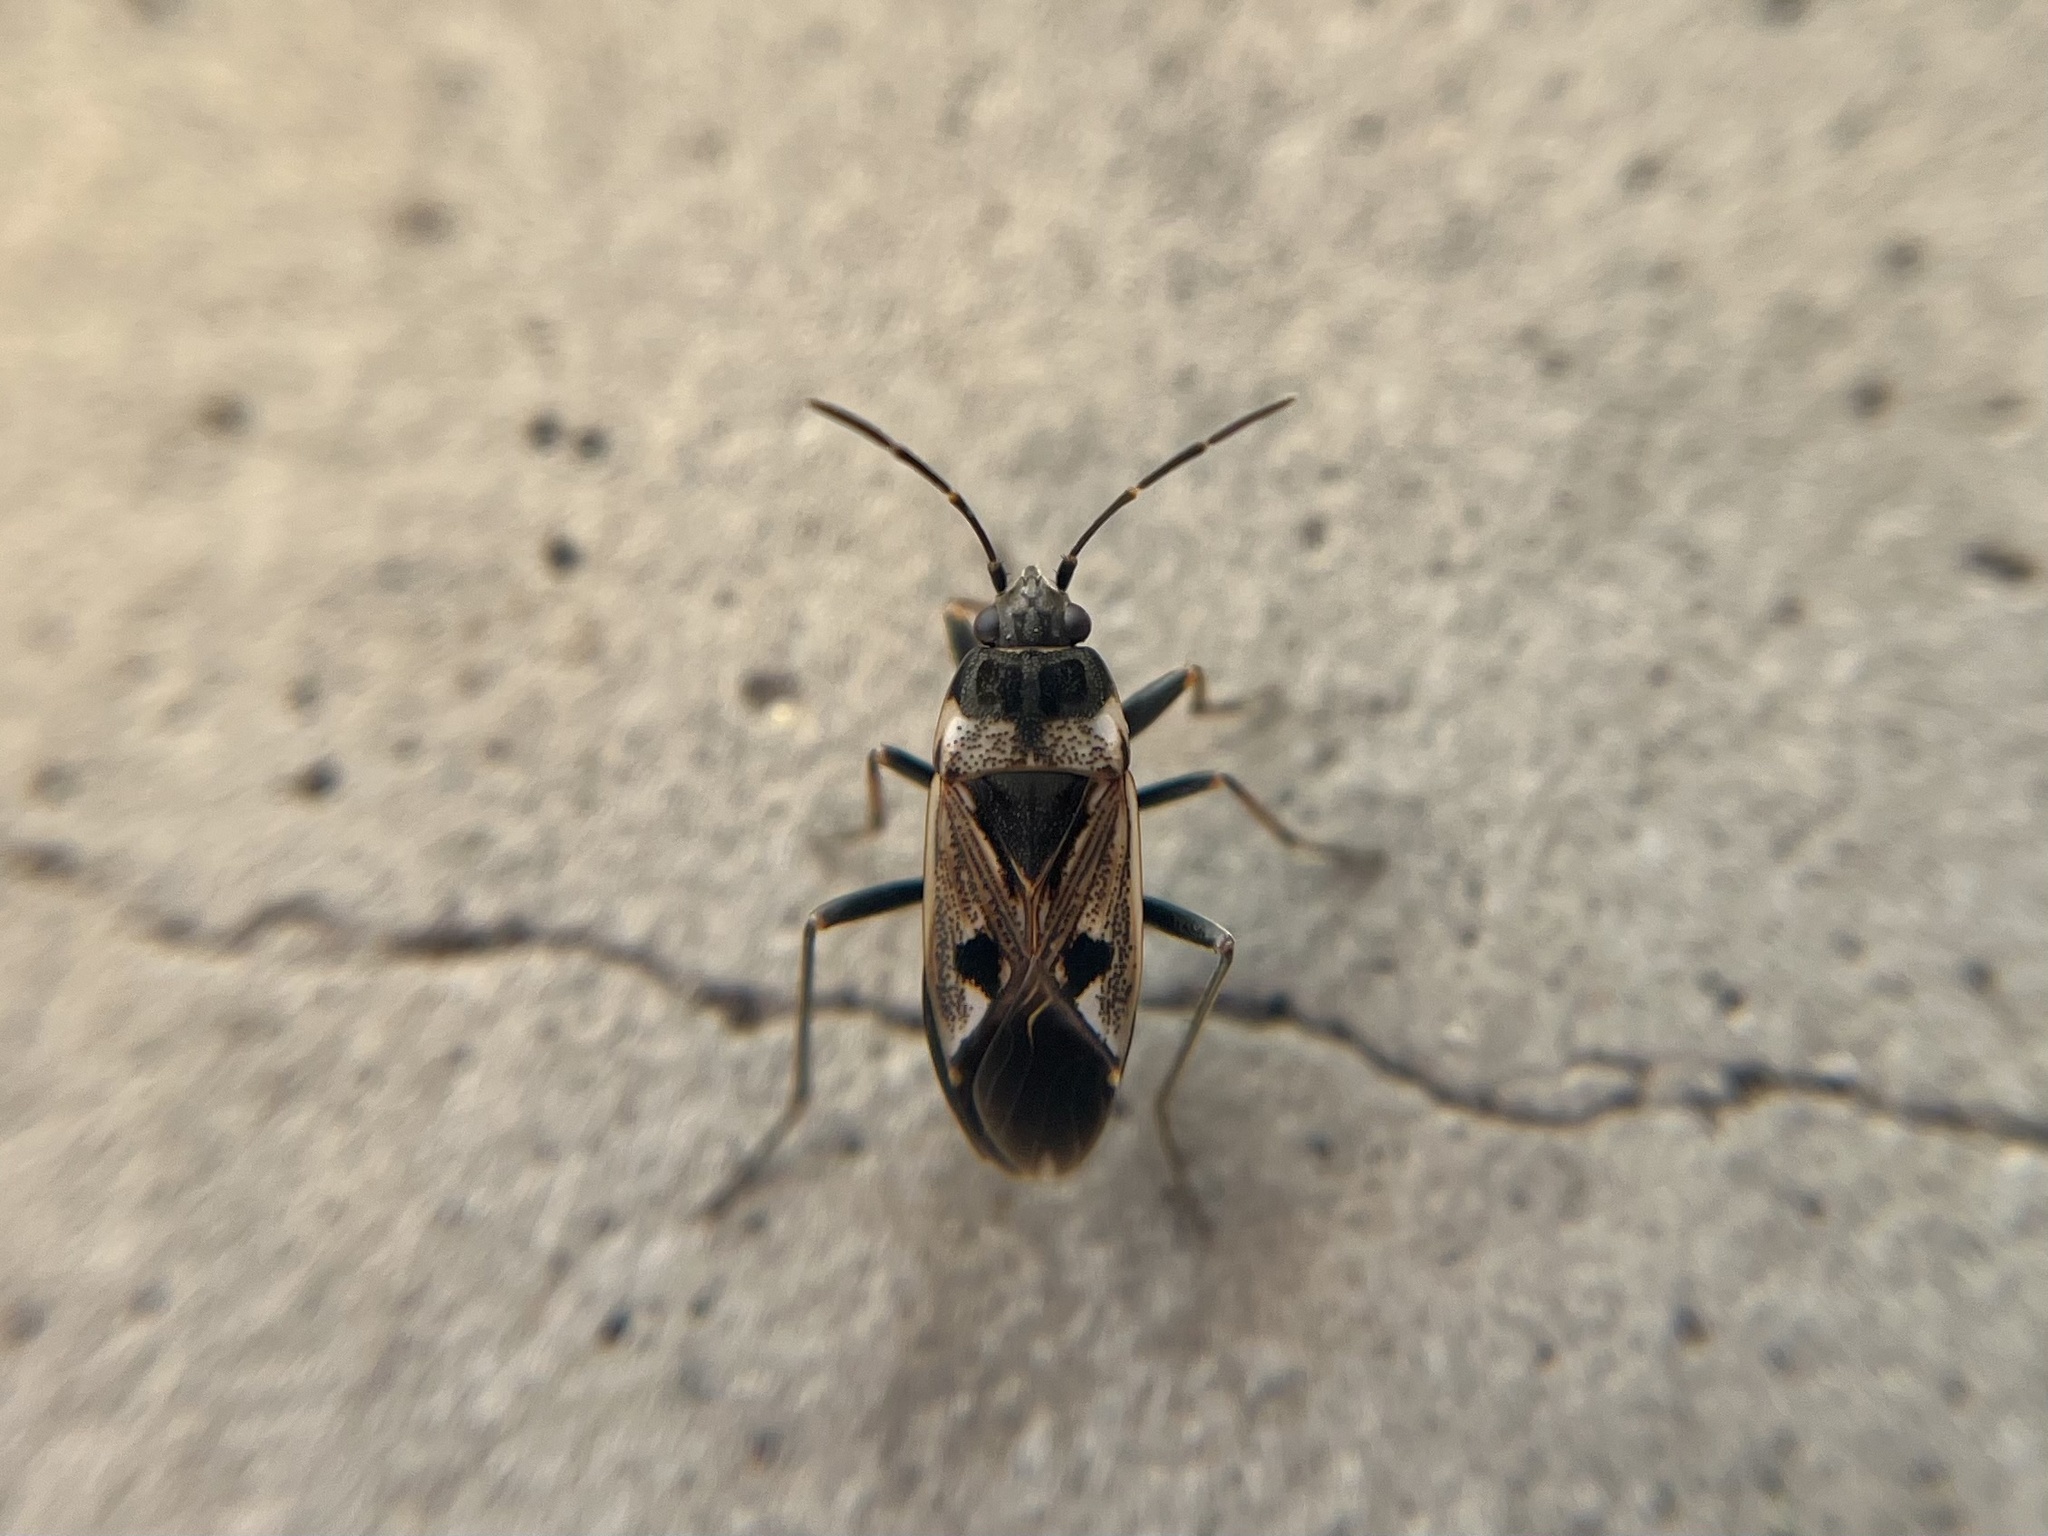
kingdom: Animalia
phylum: Arthropoda
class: Insecta
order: Hemiptera
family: Rhyparochromidae
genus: Rhyparochromus
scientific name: Rhyparochromus vulgaris
